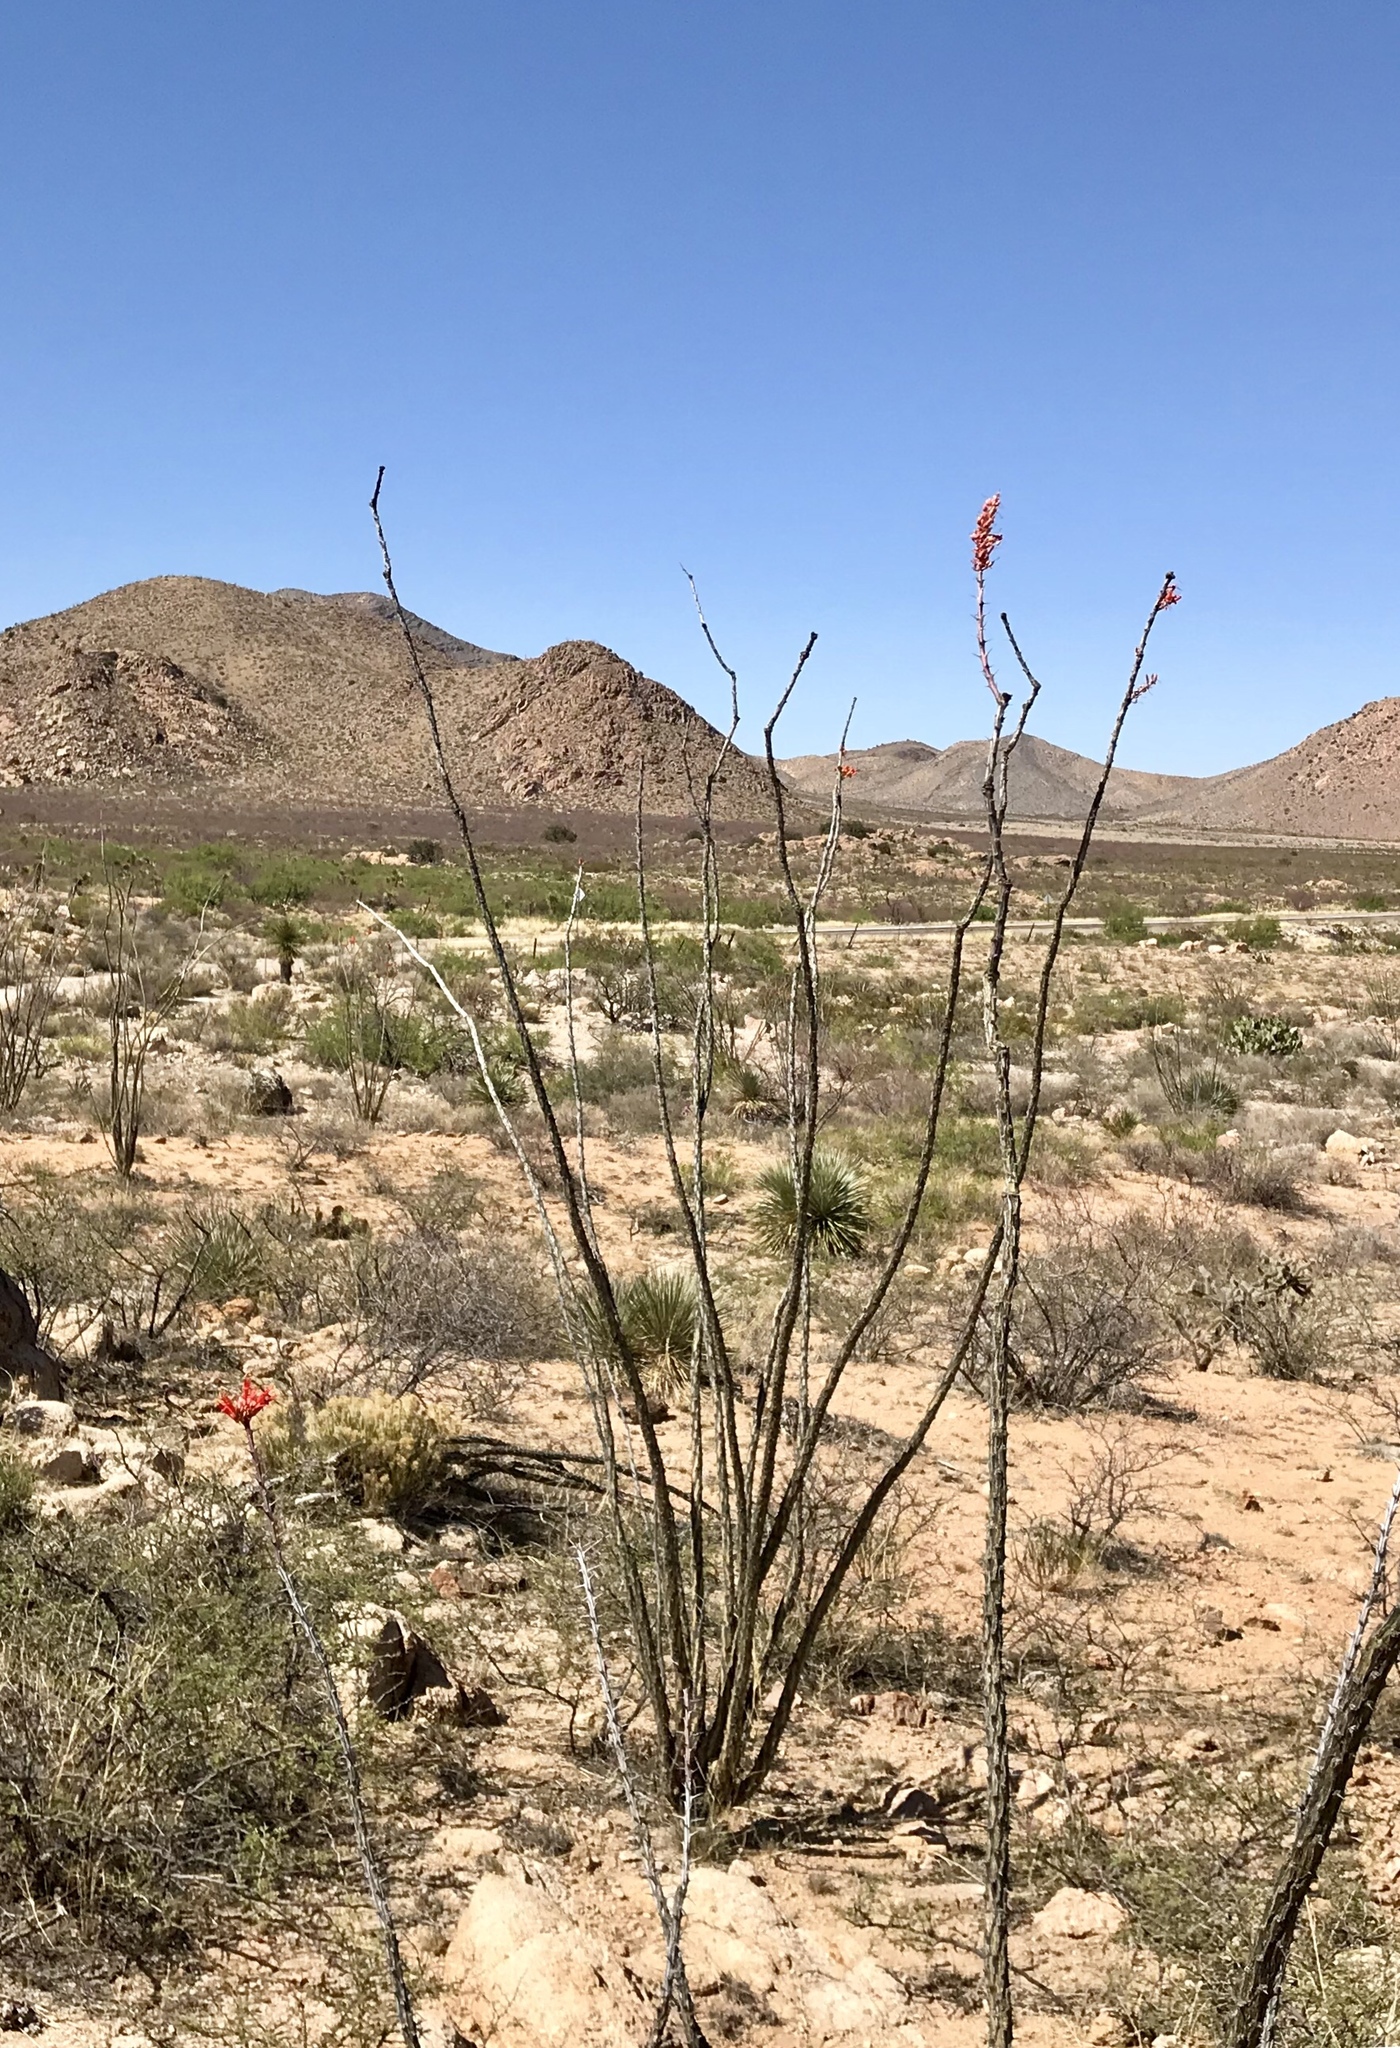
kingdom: Plantae
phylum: Tracheophyta
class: Magnoliopsida
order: Ericales
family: Fouquieriaceae
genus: Fouquieria
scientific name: Fouquieria splendens
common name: Vine-cactus
